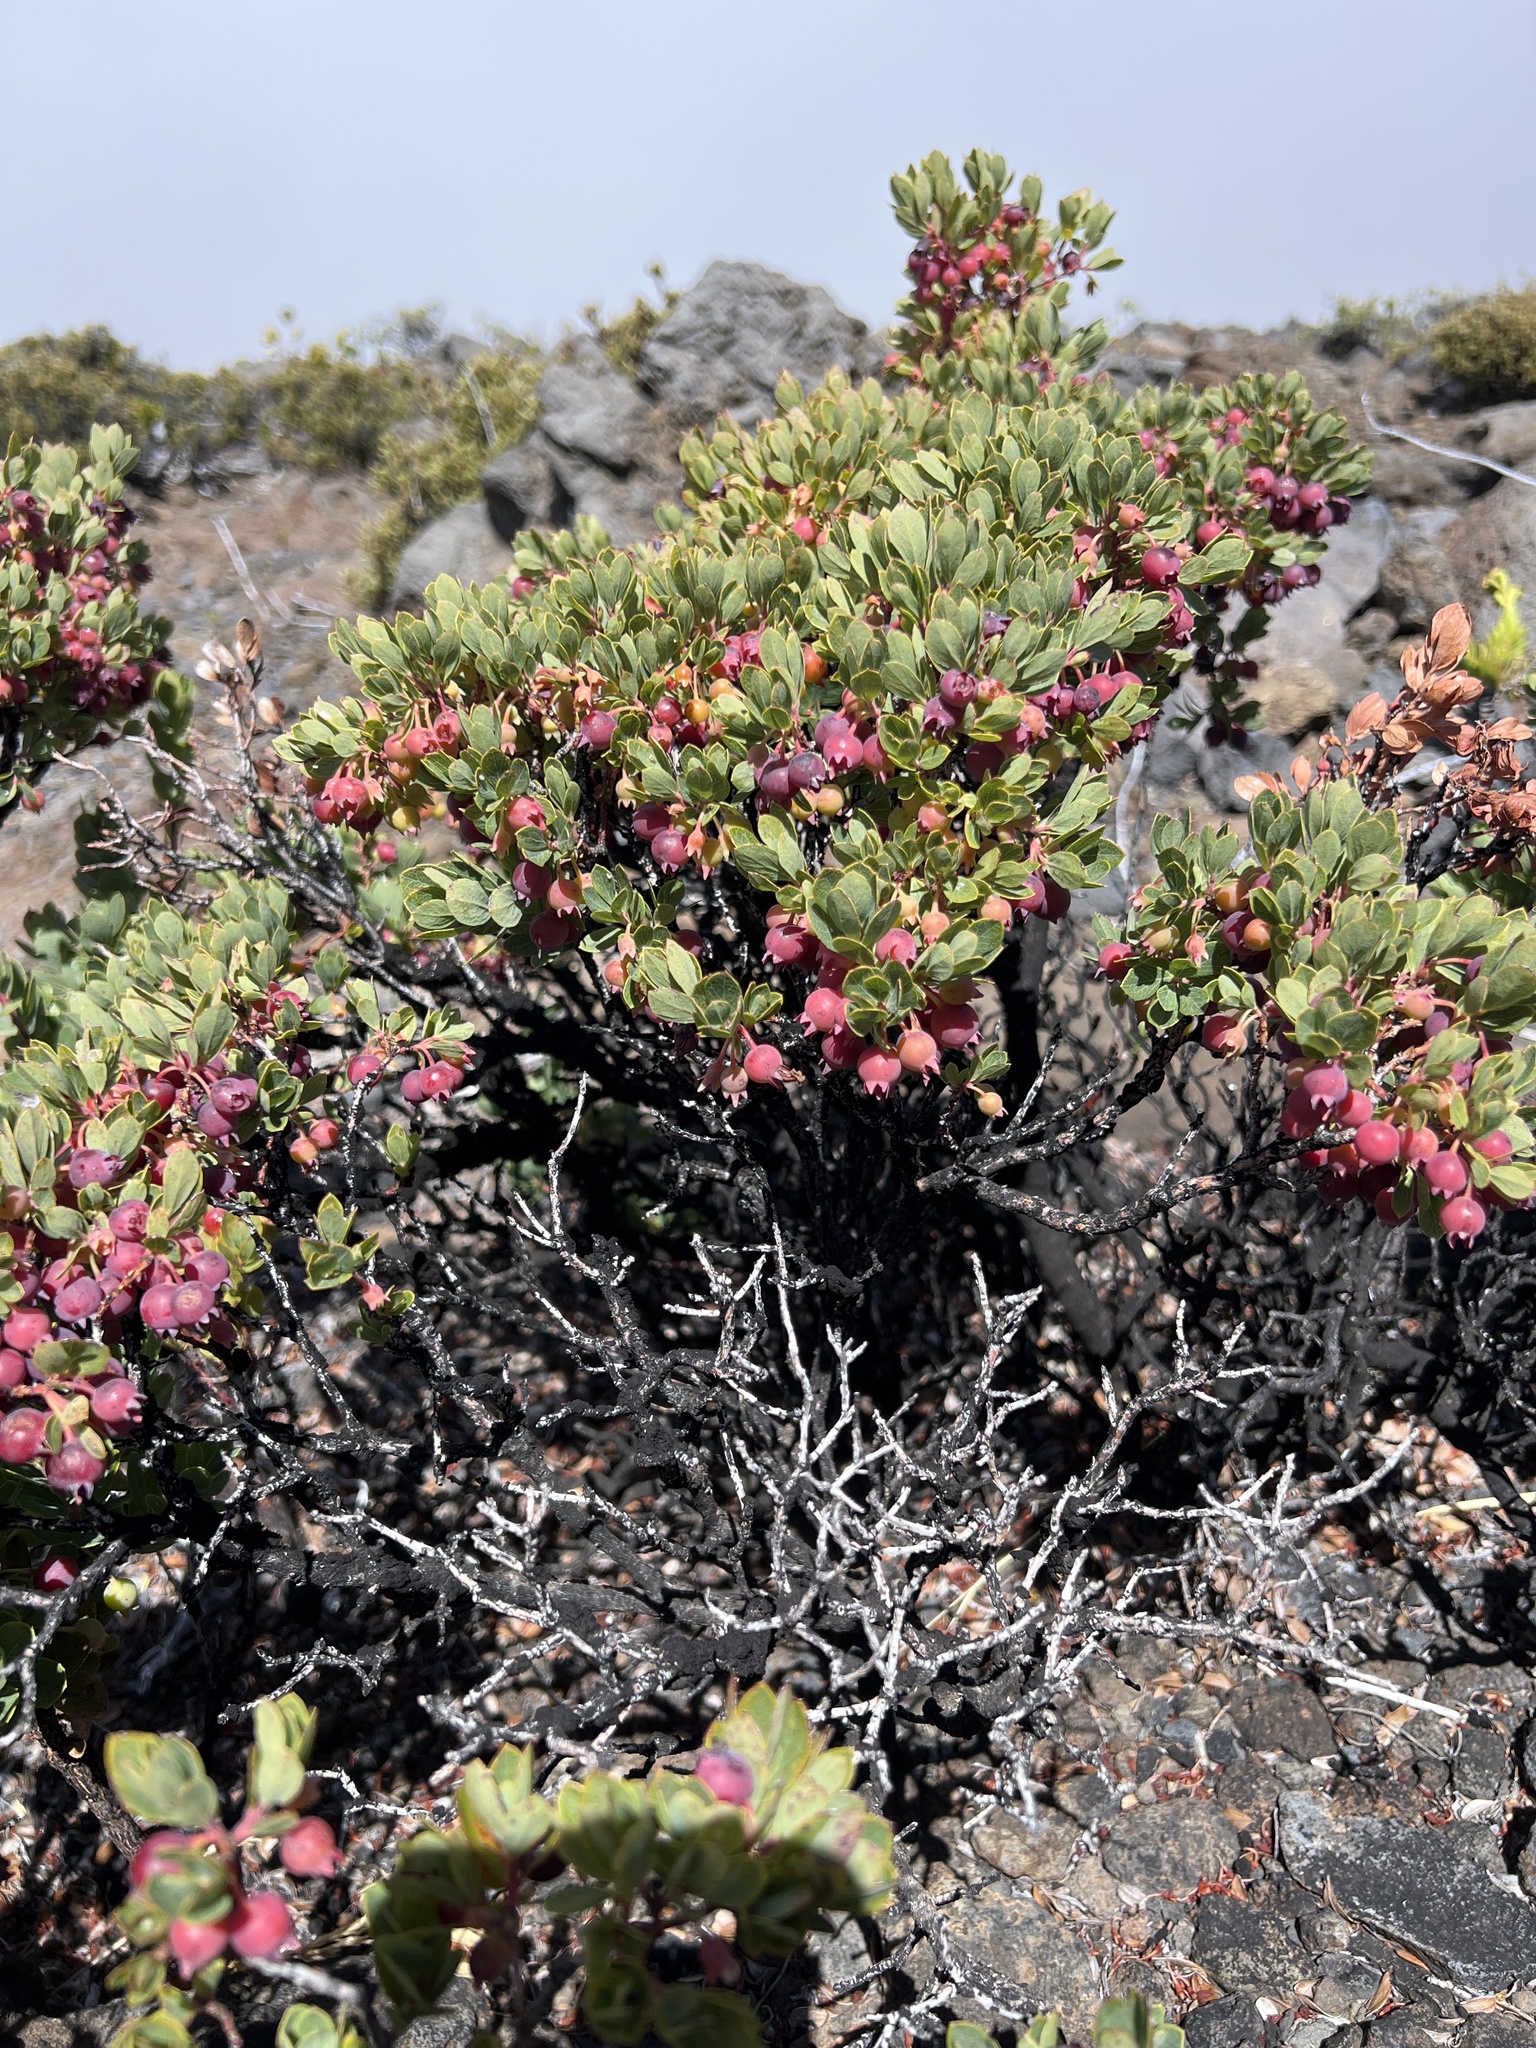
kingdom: Plantae
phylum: Tracheophyta
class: Magnoliopsida
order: Ericales
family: Ericaceae
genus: Vaccinium
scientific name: Vaccinium reticulatum
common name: Ohelo
